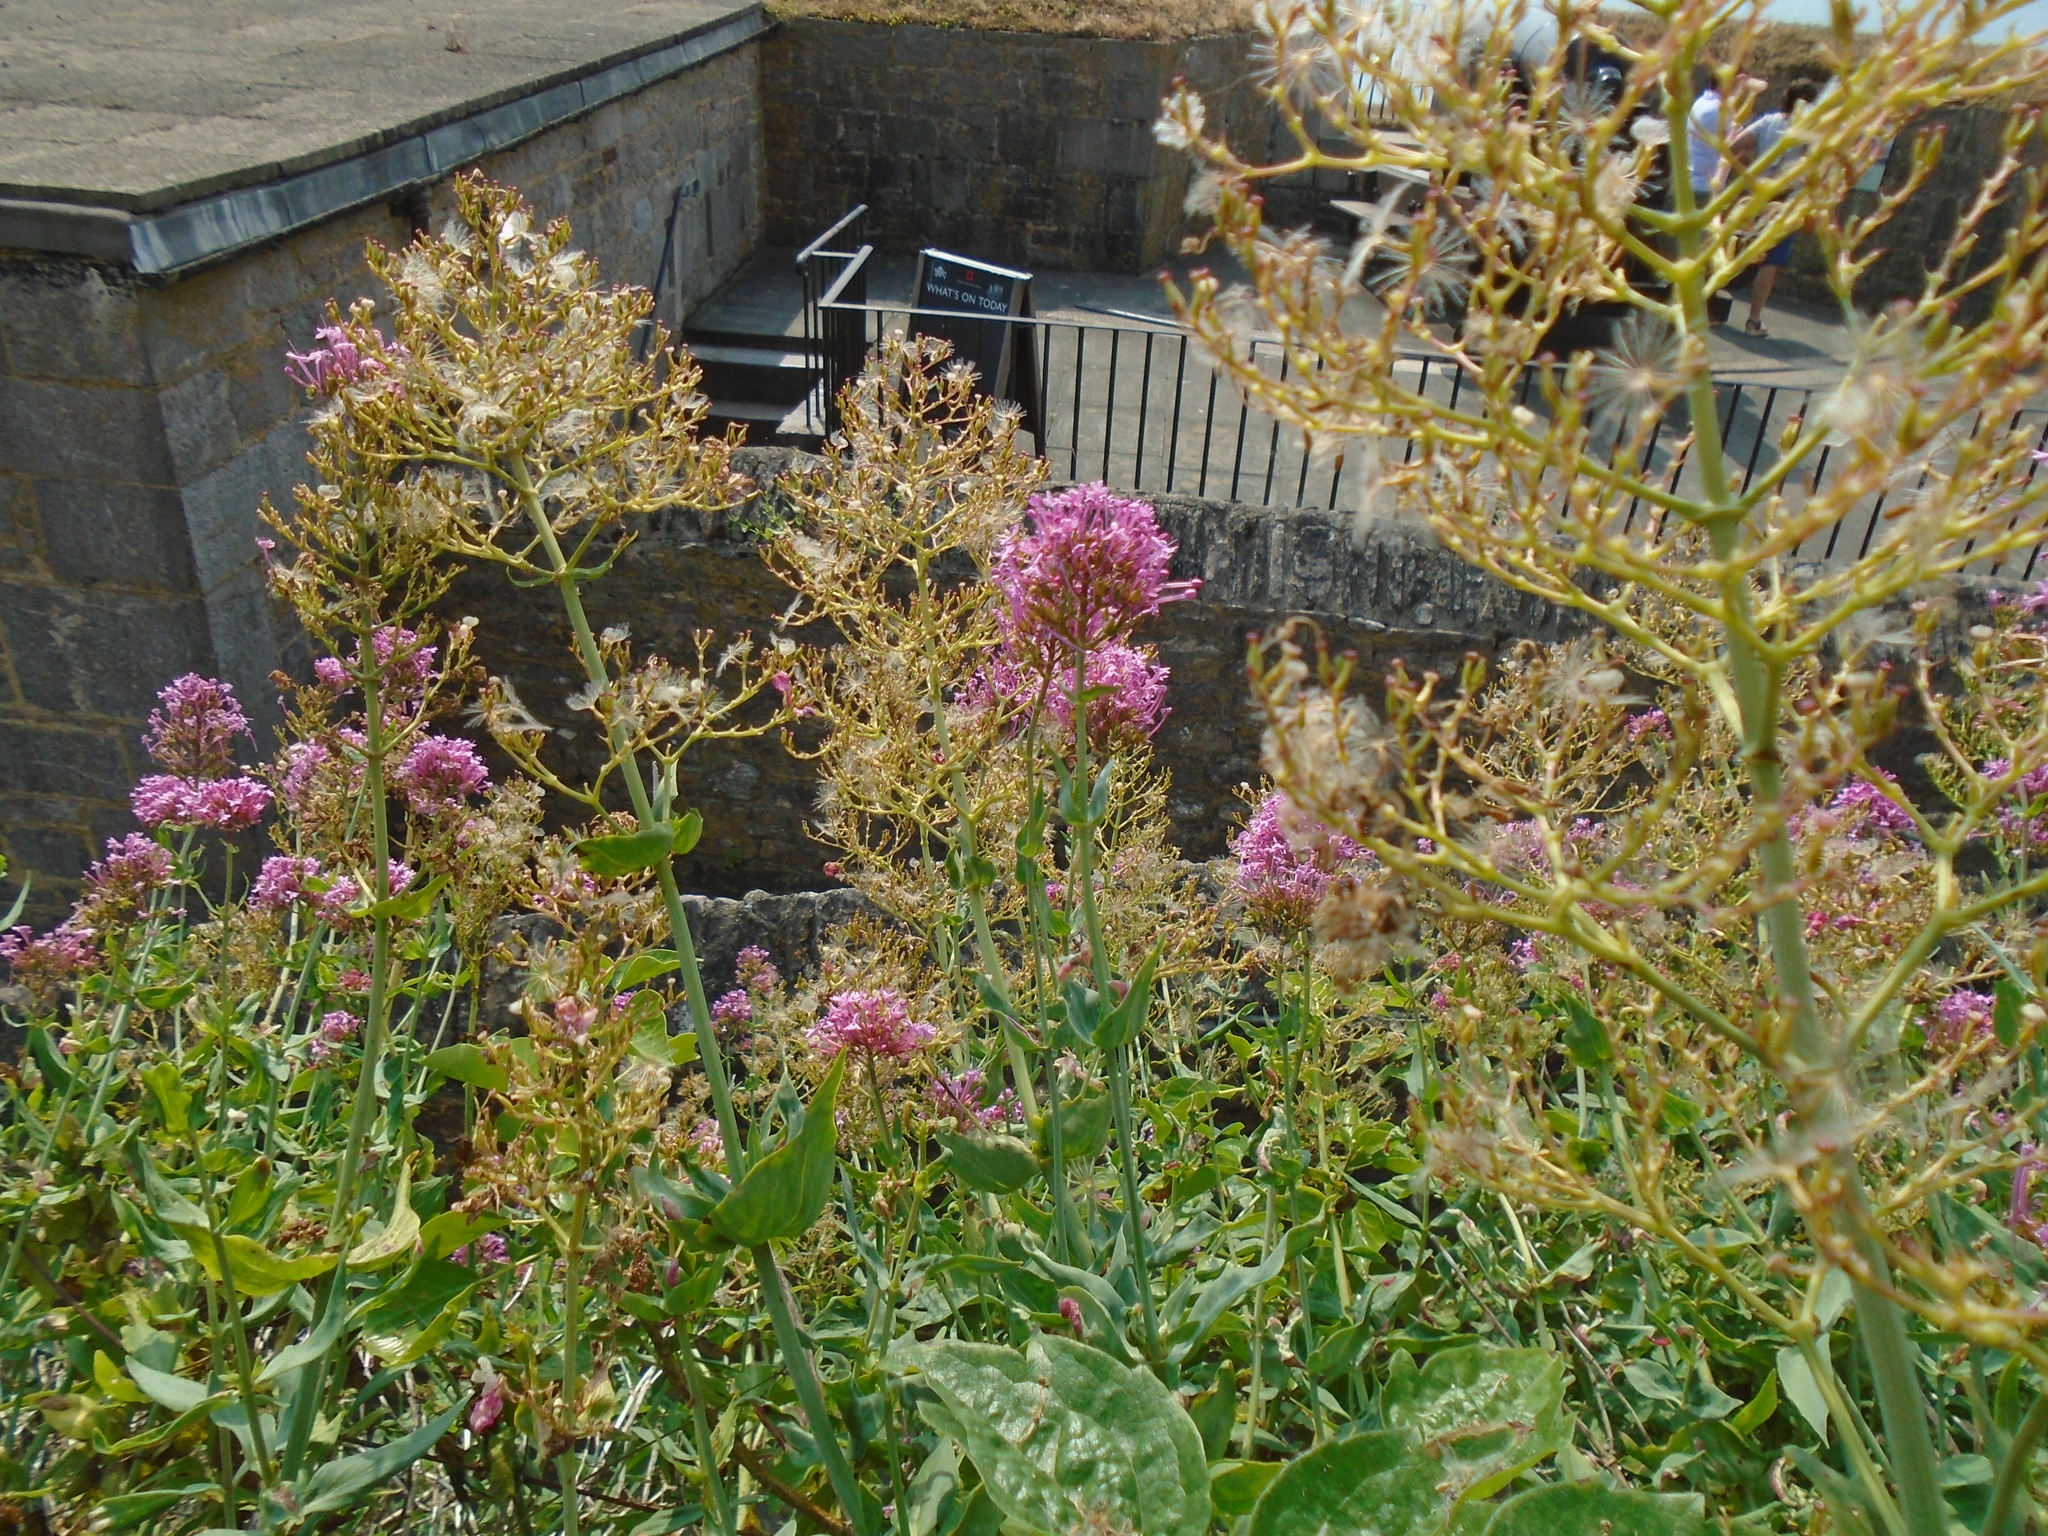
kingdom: Plantae
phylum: Tracheophyta
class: Magnoliopsida
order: Dipsacales
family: Caprifoliaceae
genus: Centranthus
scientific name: Centranthus ruber
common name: Red valerian
